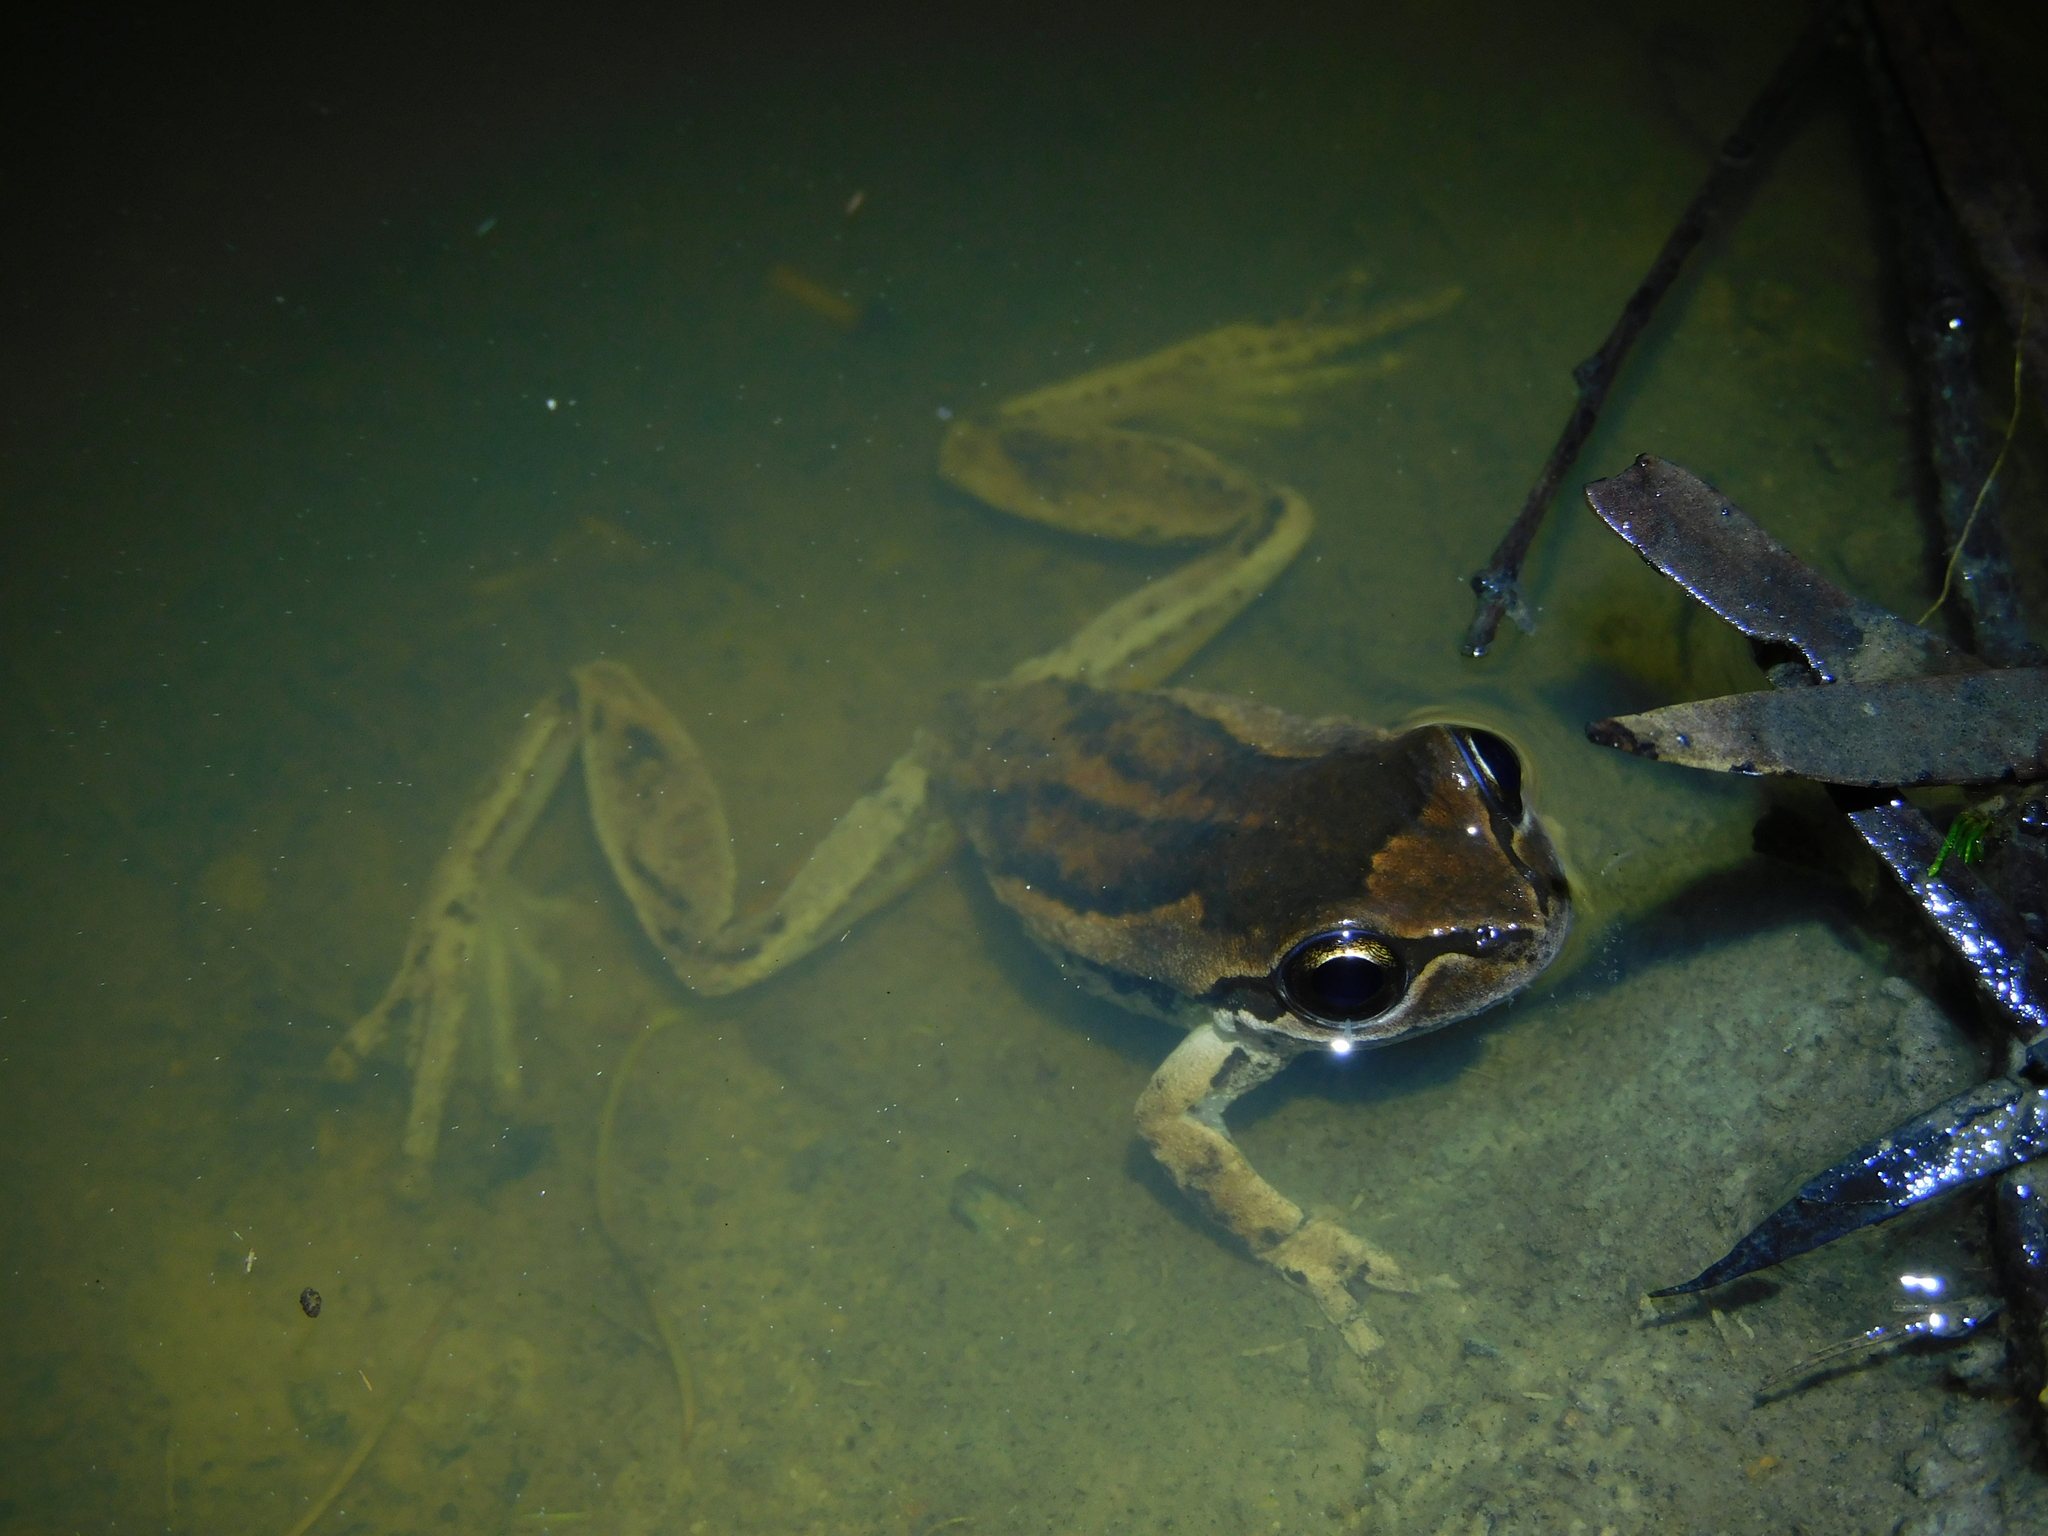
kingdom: Animalia
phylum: Chordata
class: Amphibia
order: Anura
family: Pelodryadidae
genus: Litoria
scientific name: Litoria ewingii
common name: Southern brown tree frog
